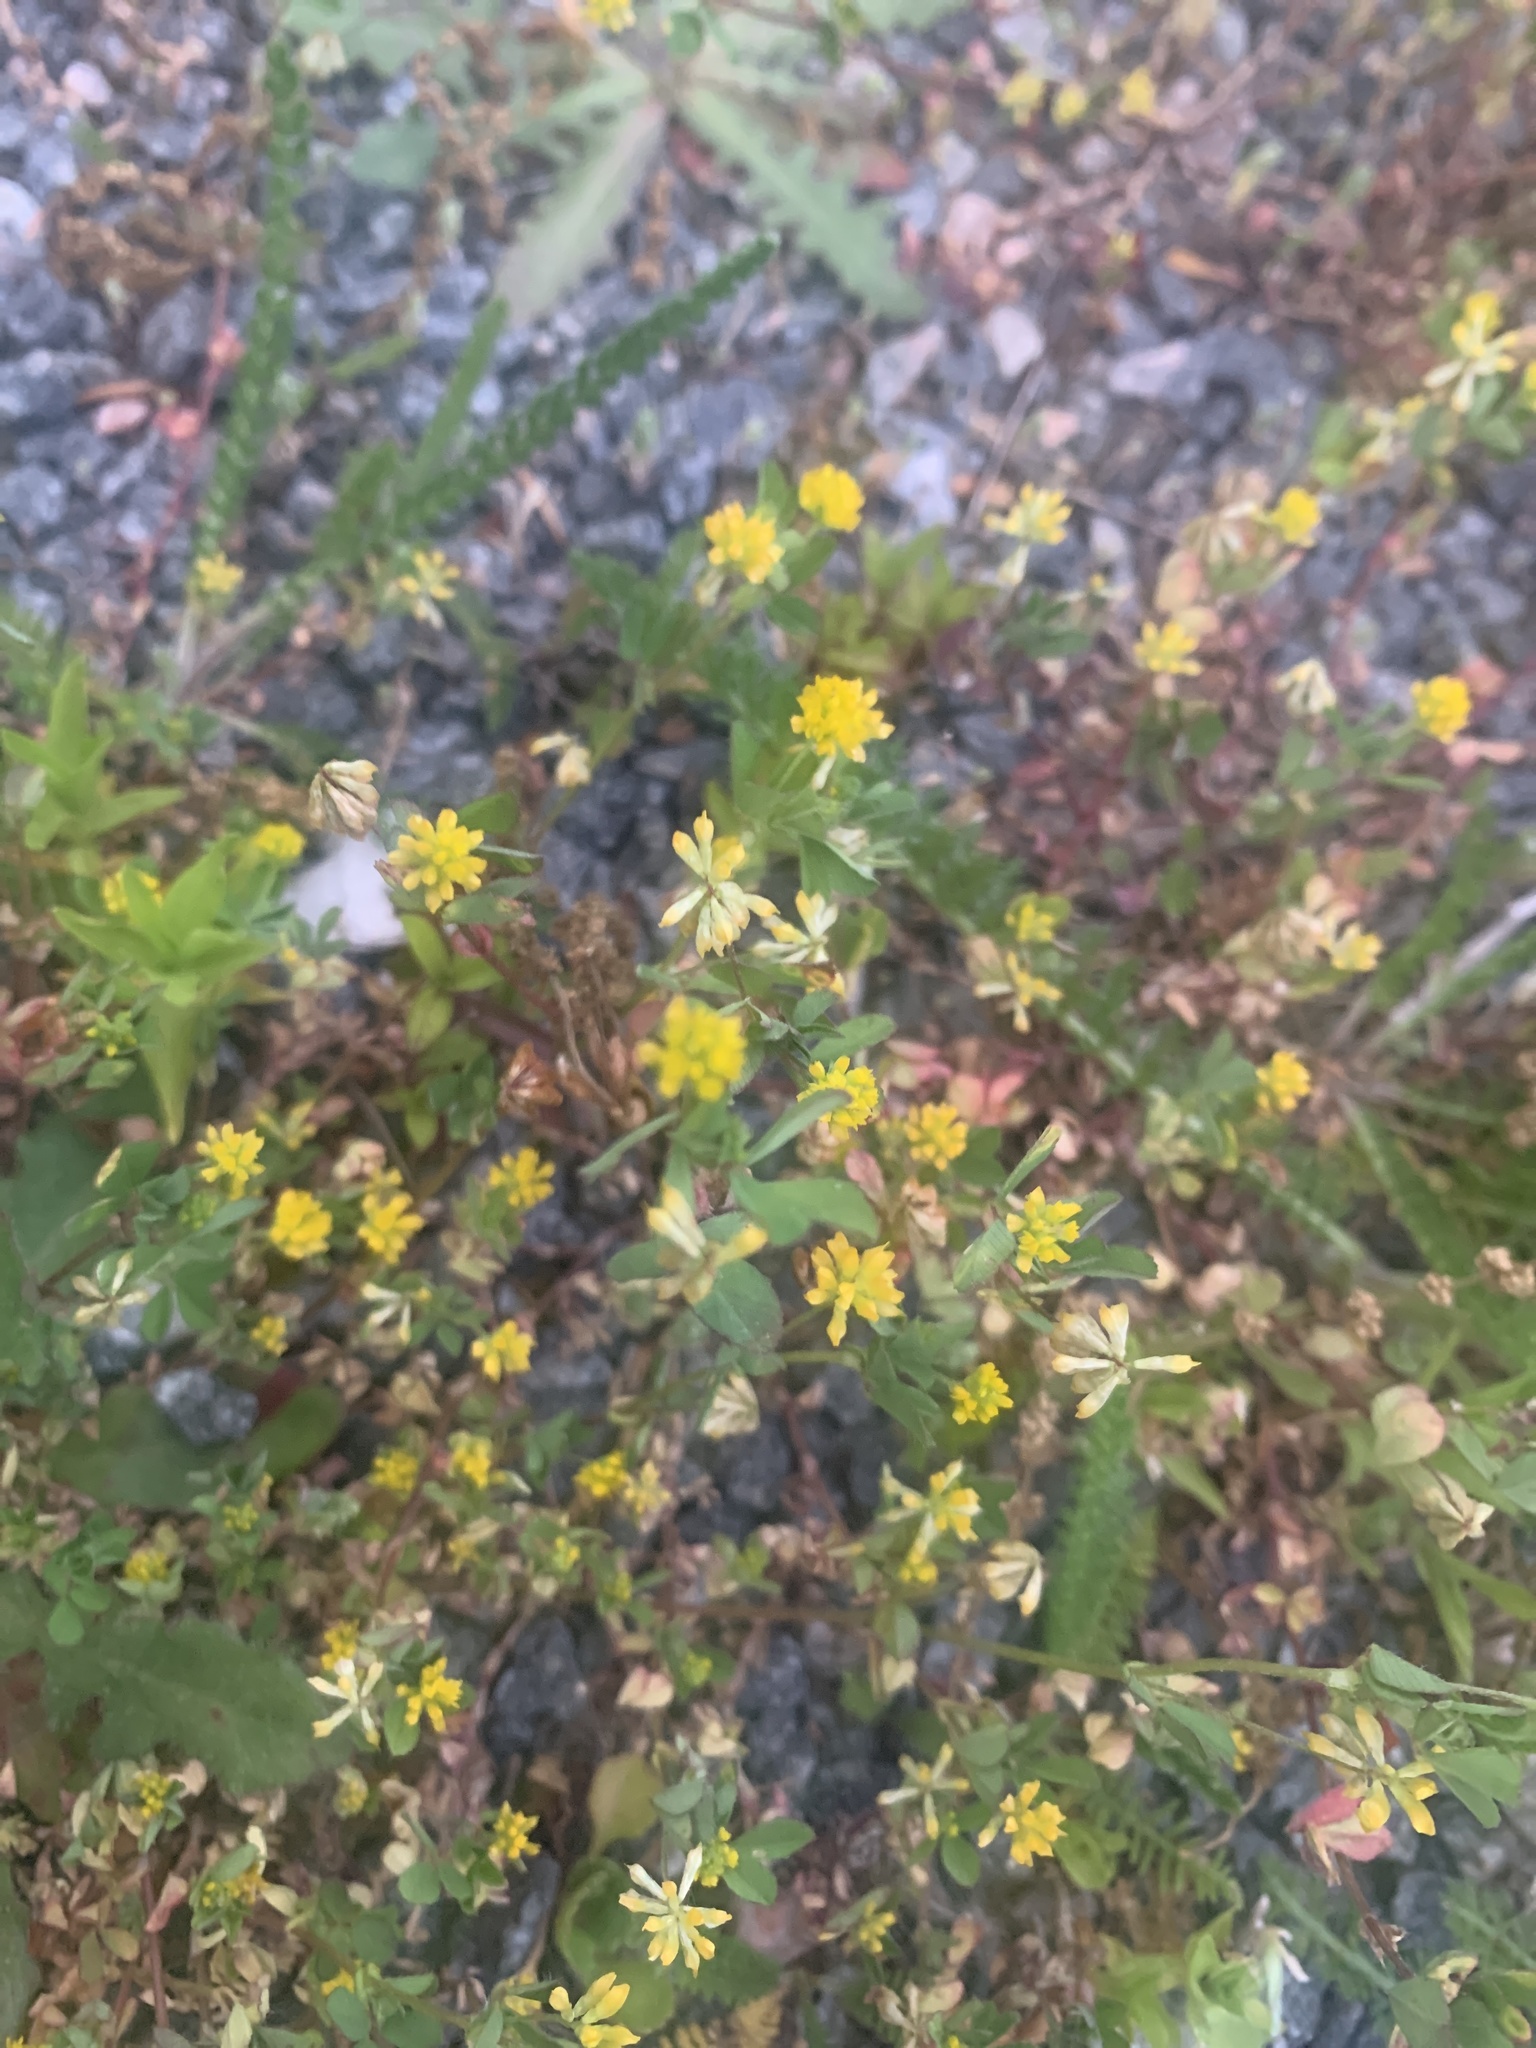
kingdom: Plantae
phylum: Tracheophyta
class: Magnoliopsida
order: Fabales
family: Fabaceae
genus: Trifolium
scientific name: Trifolium dubium
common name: Suckling clover
